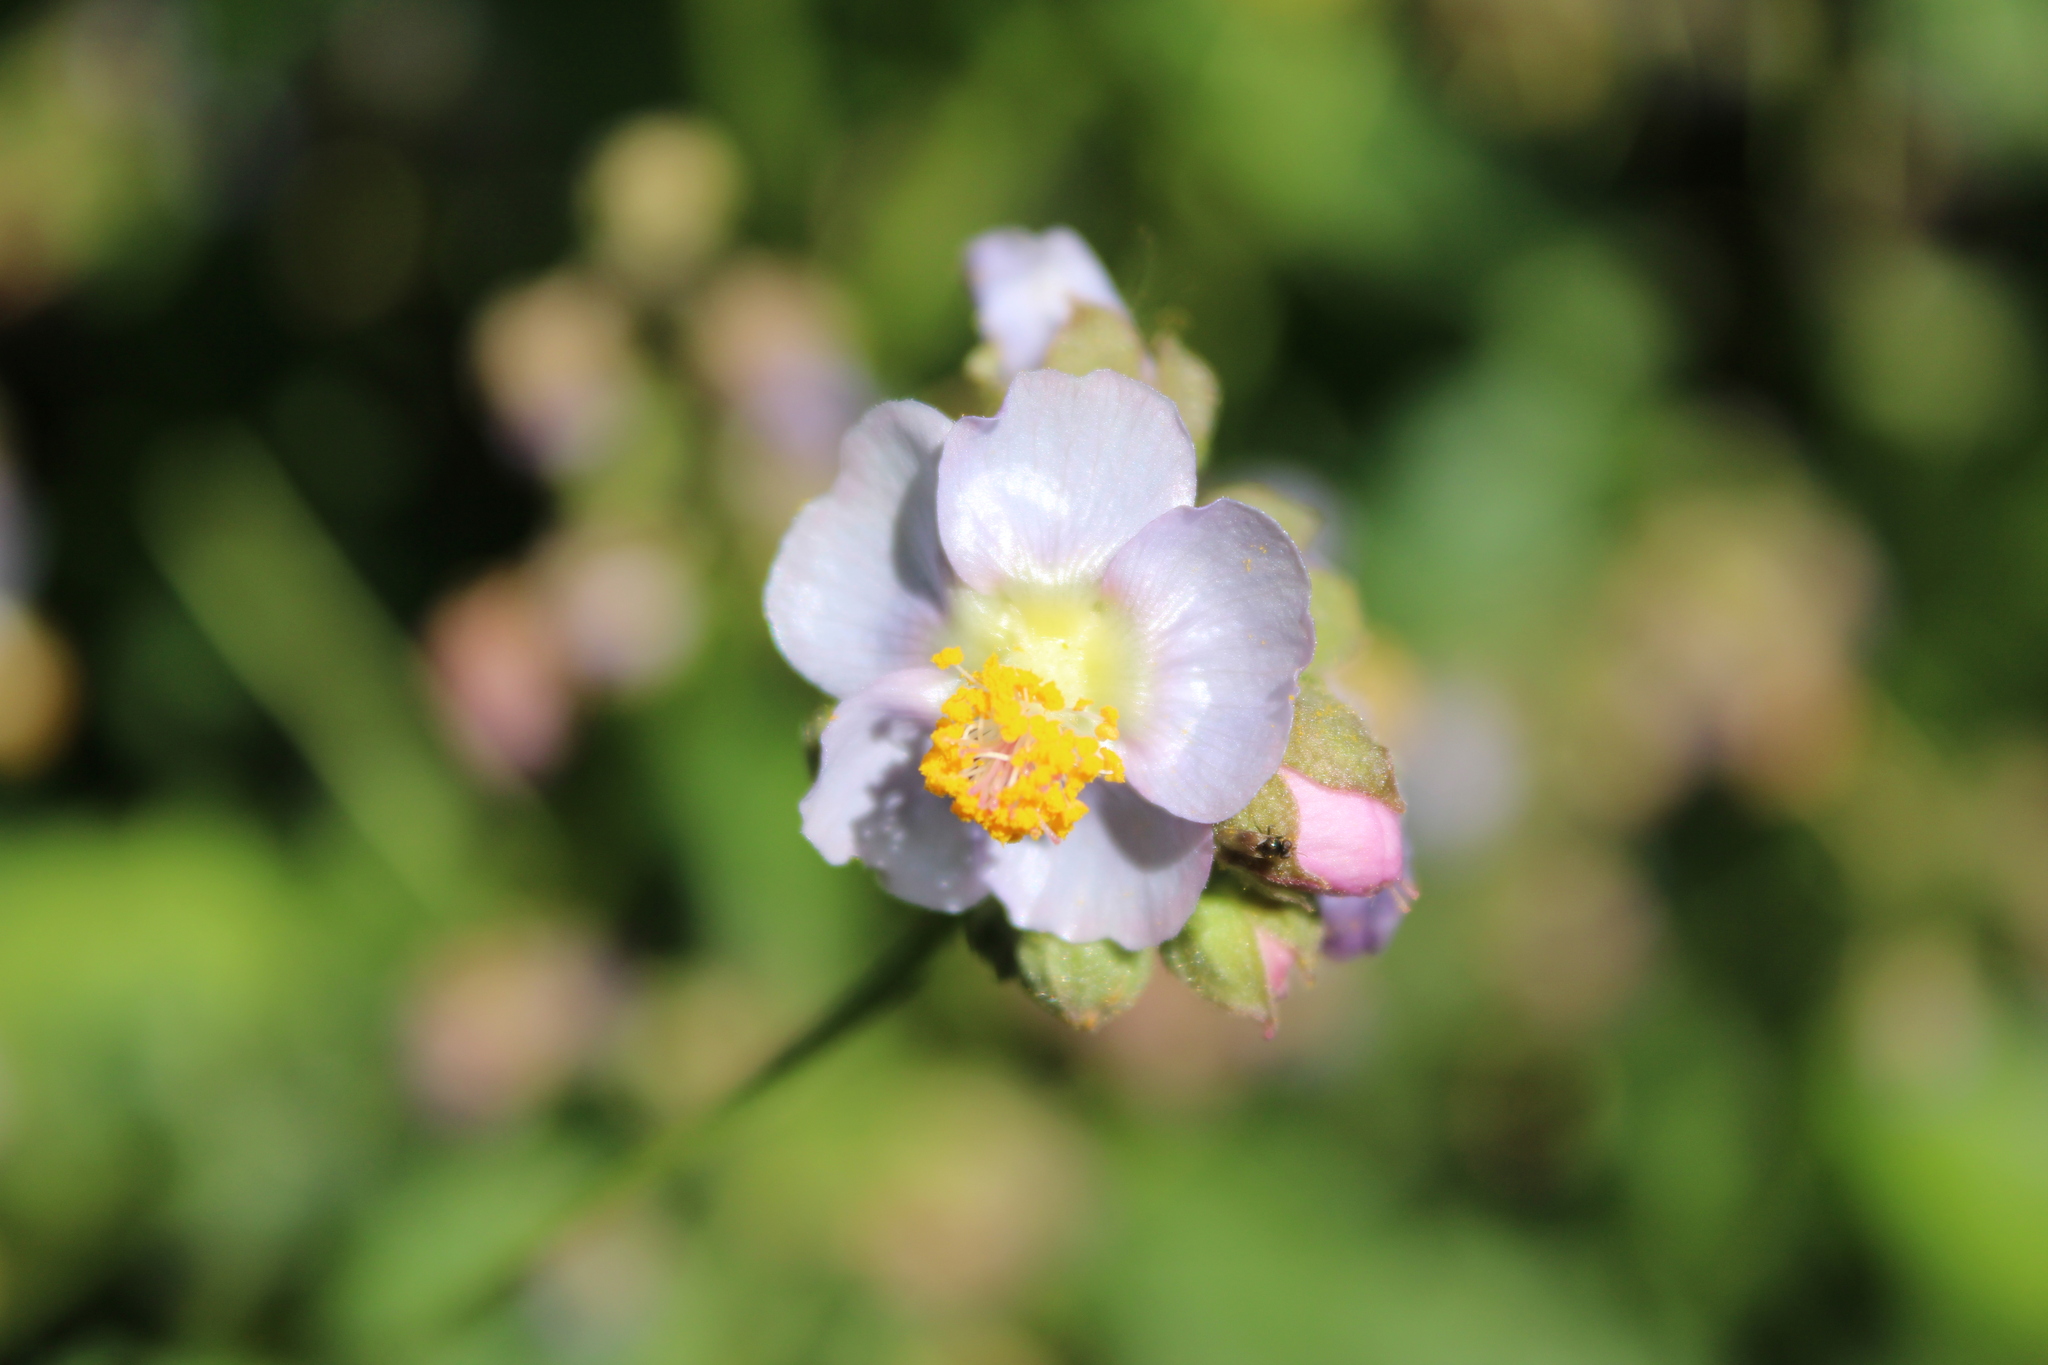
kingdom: Plantae
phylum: Tracheophyta
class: Magnoliopsida
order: Malvales
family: Malvaceae
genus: Monteiroa
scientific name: Monteiroa glomerata
